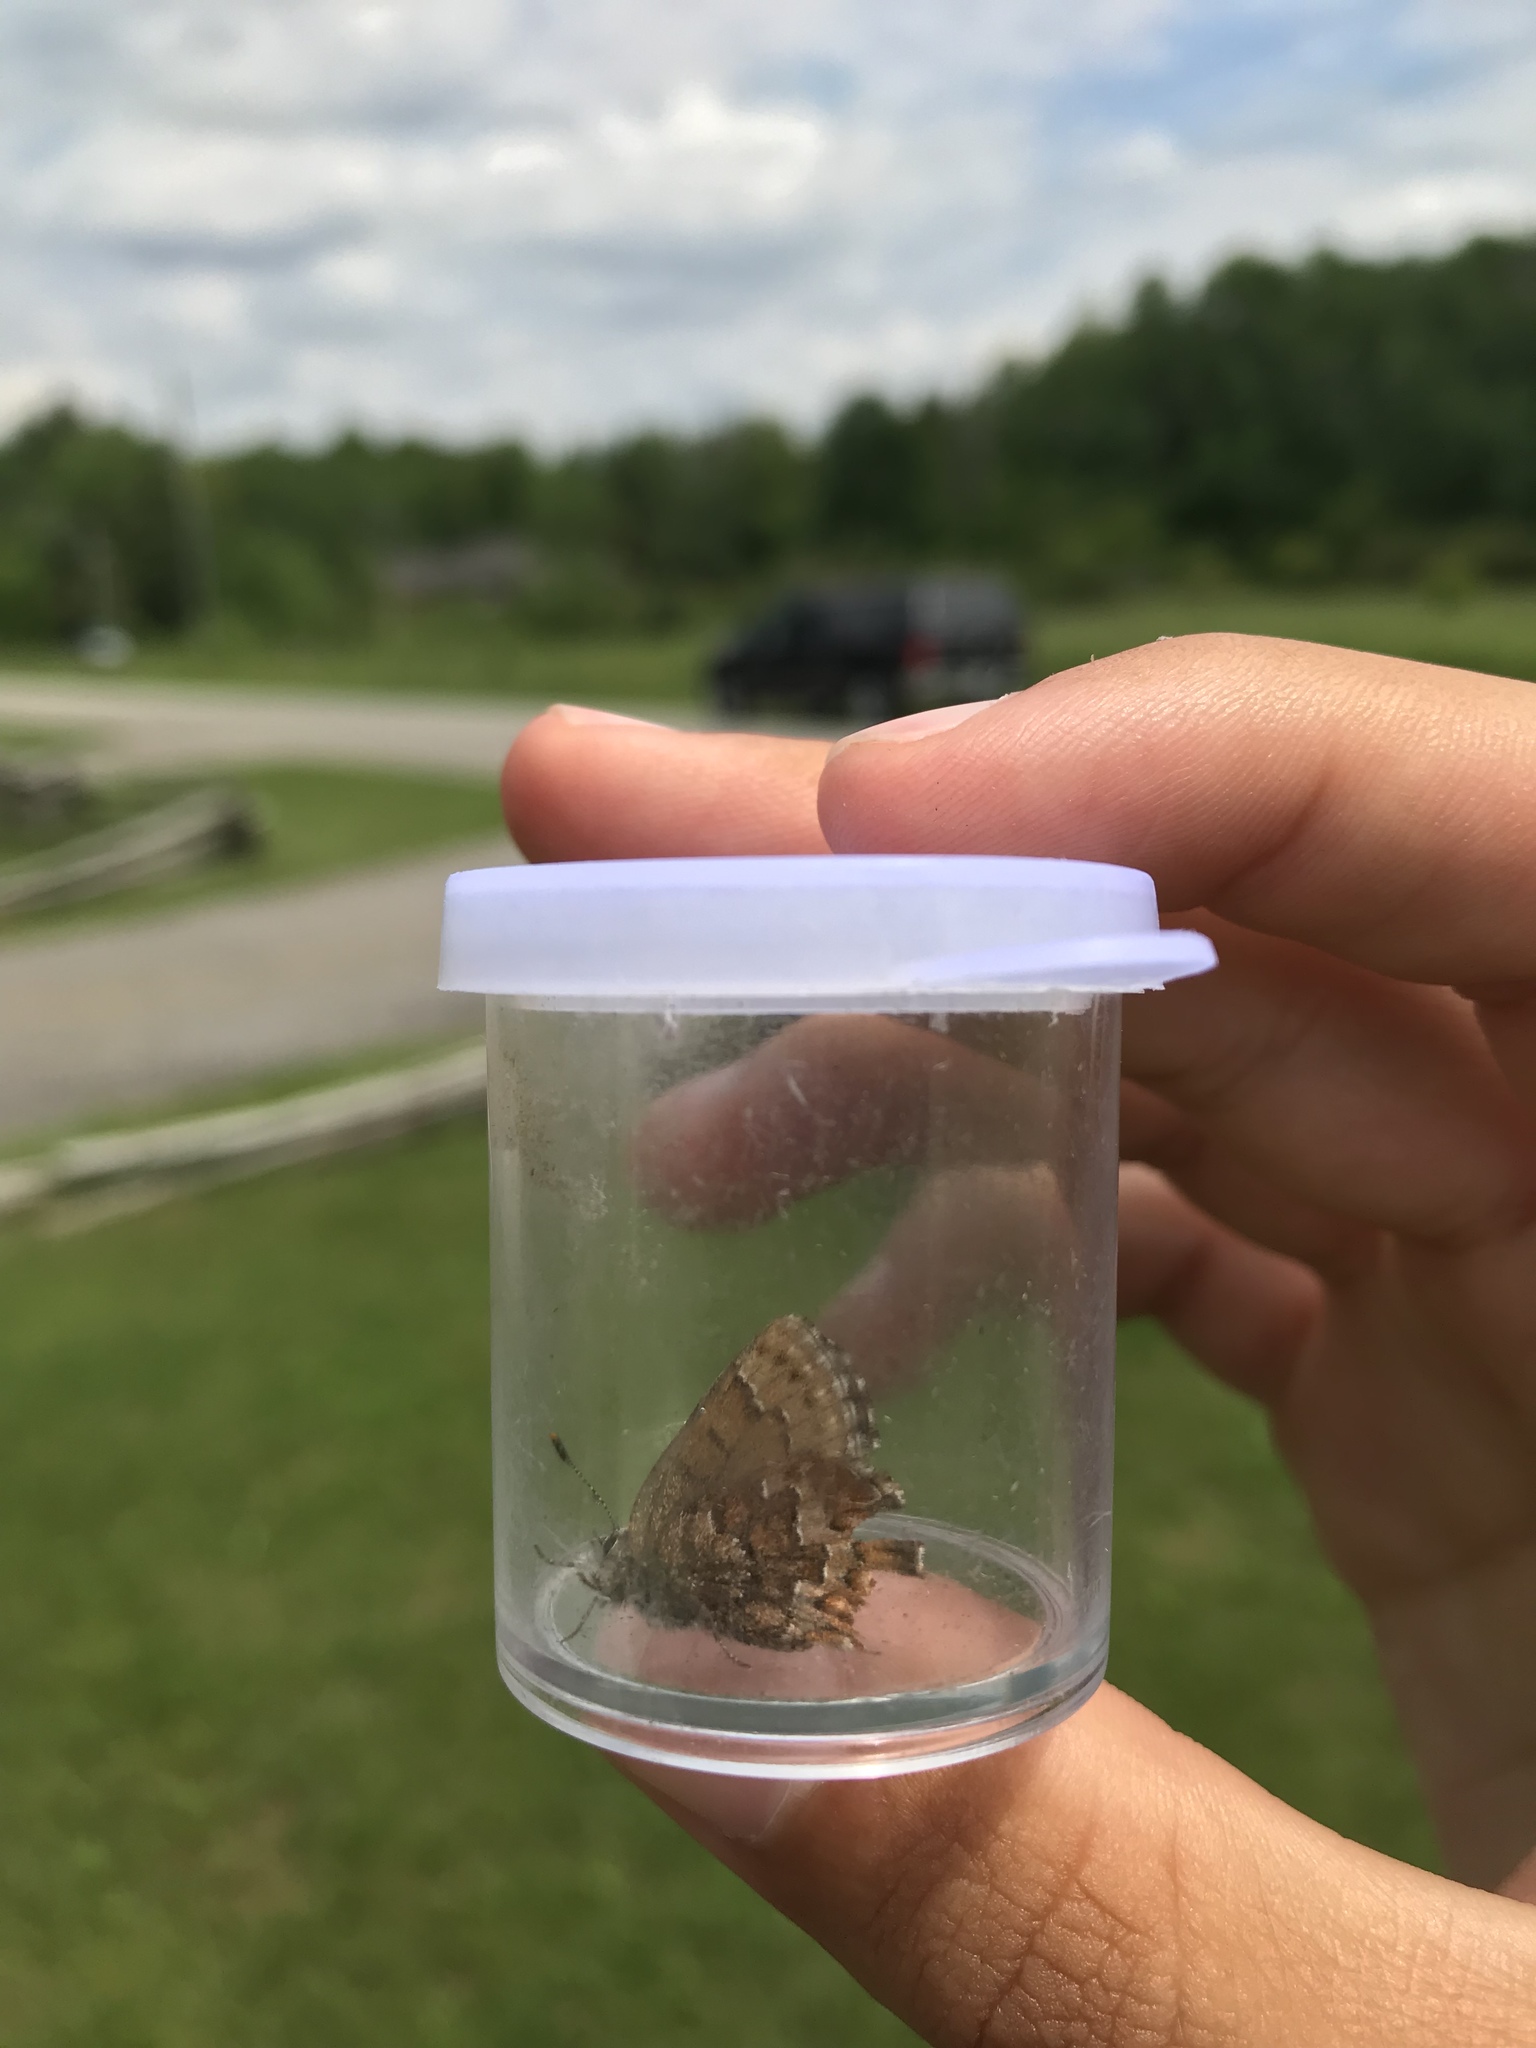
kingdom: Animalia
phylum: Arthropoda
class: Insecta
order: Lepidoptera
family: Lycaenidae
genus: Incisalia
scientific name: Incisalia niphon
